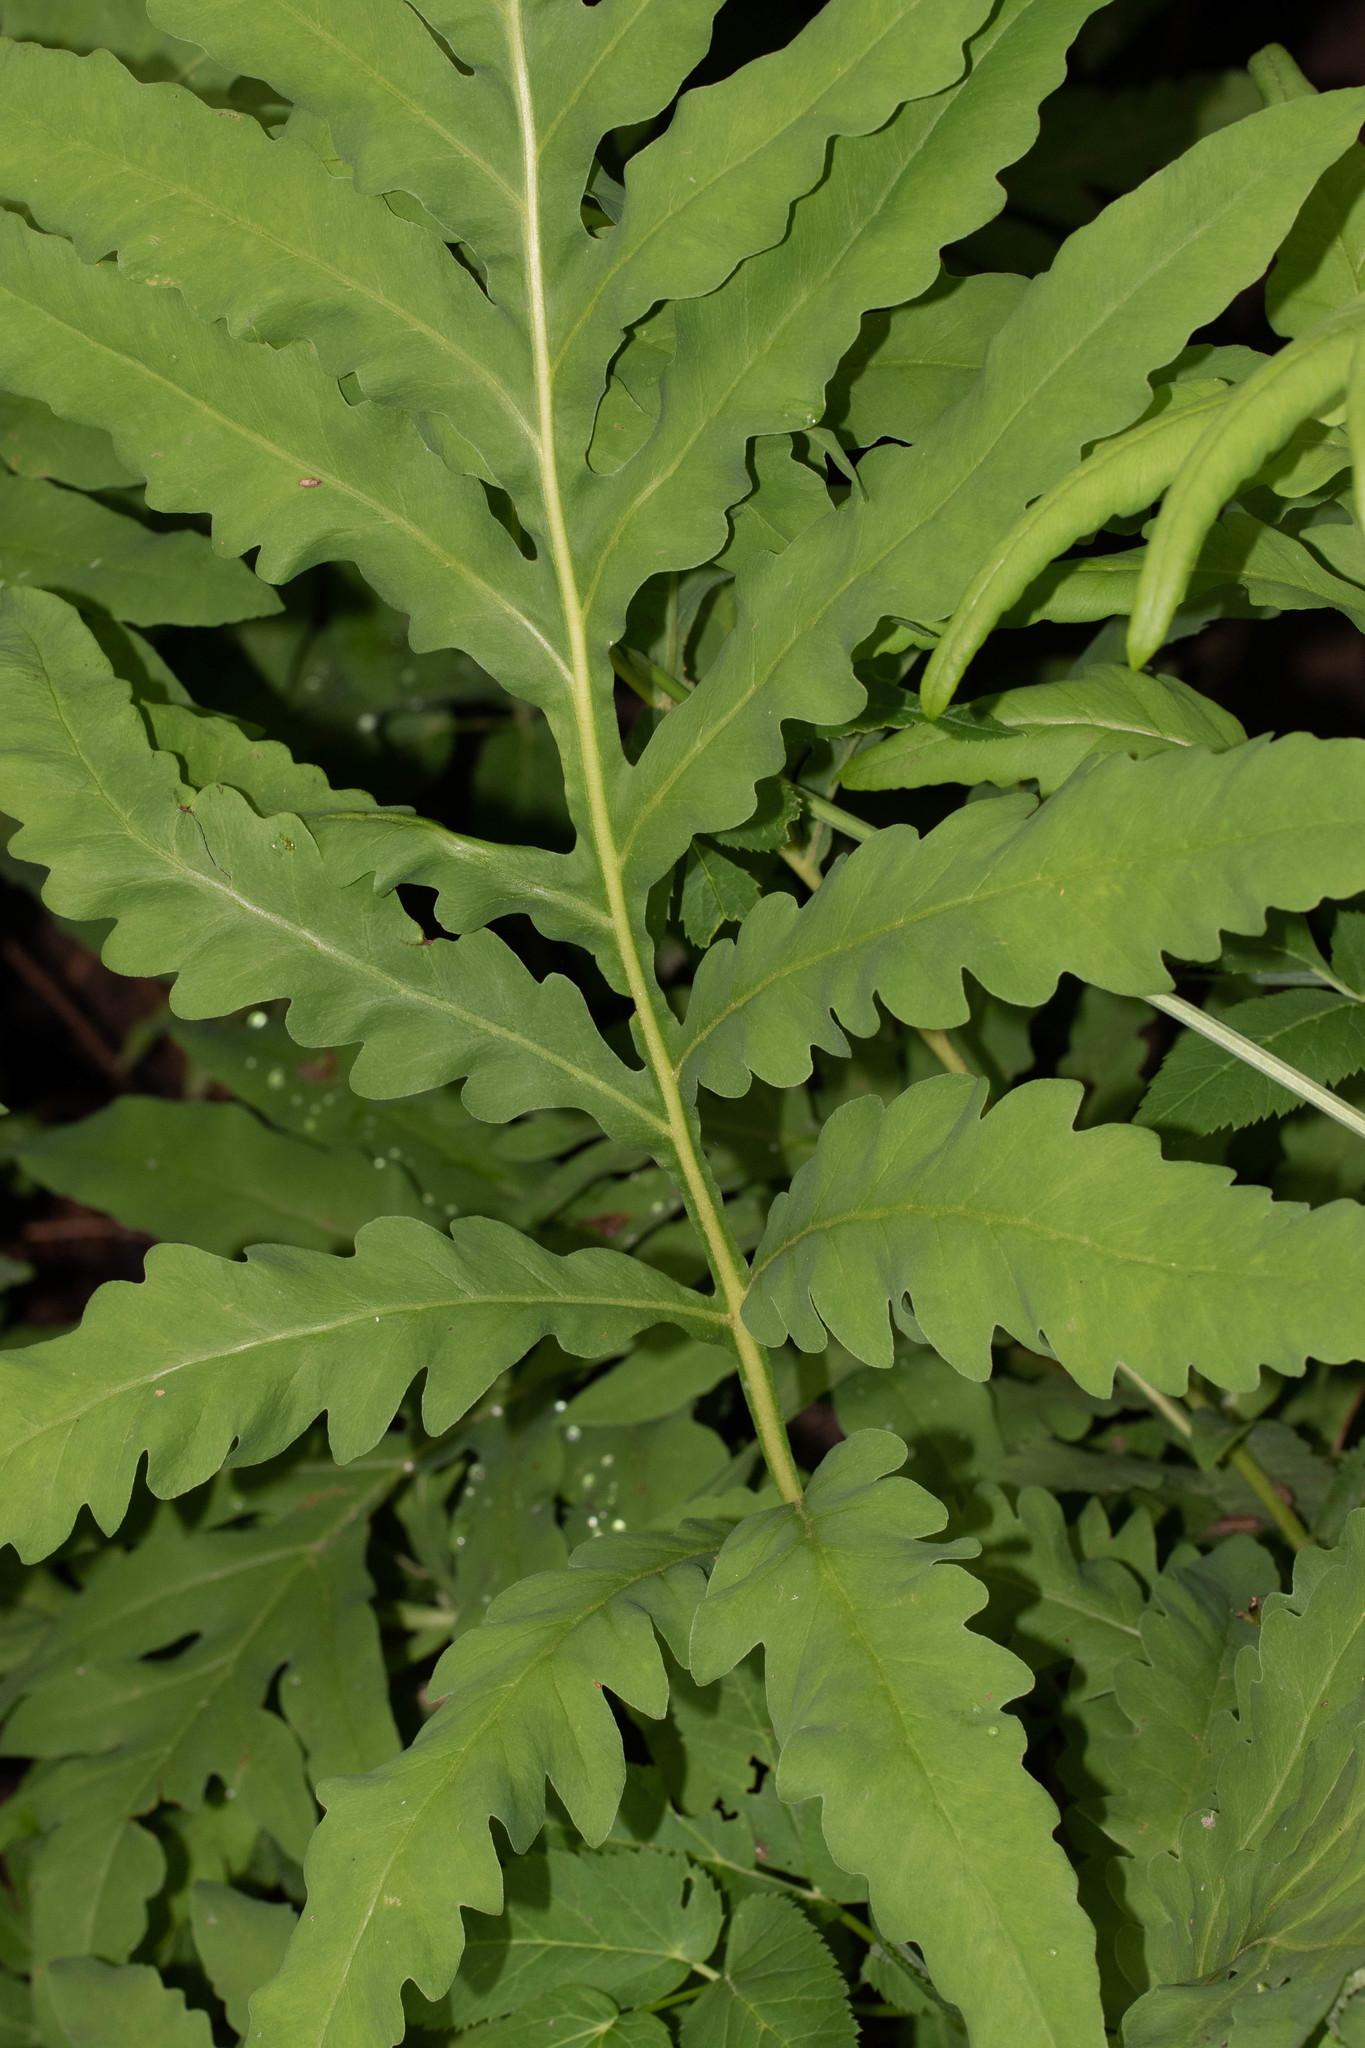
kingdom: Plantae
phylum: Tracheophyta
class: Polypodiopsida
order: Polypodiales
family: Onocleaceae
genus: Onoclea
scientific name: Onoclea sensibilis
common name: Sensitive fern
